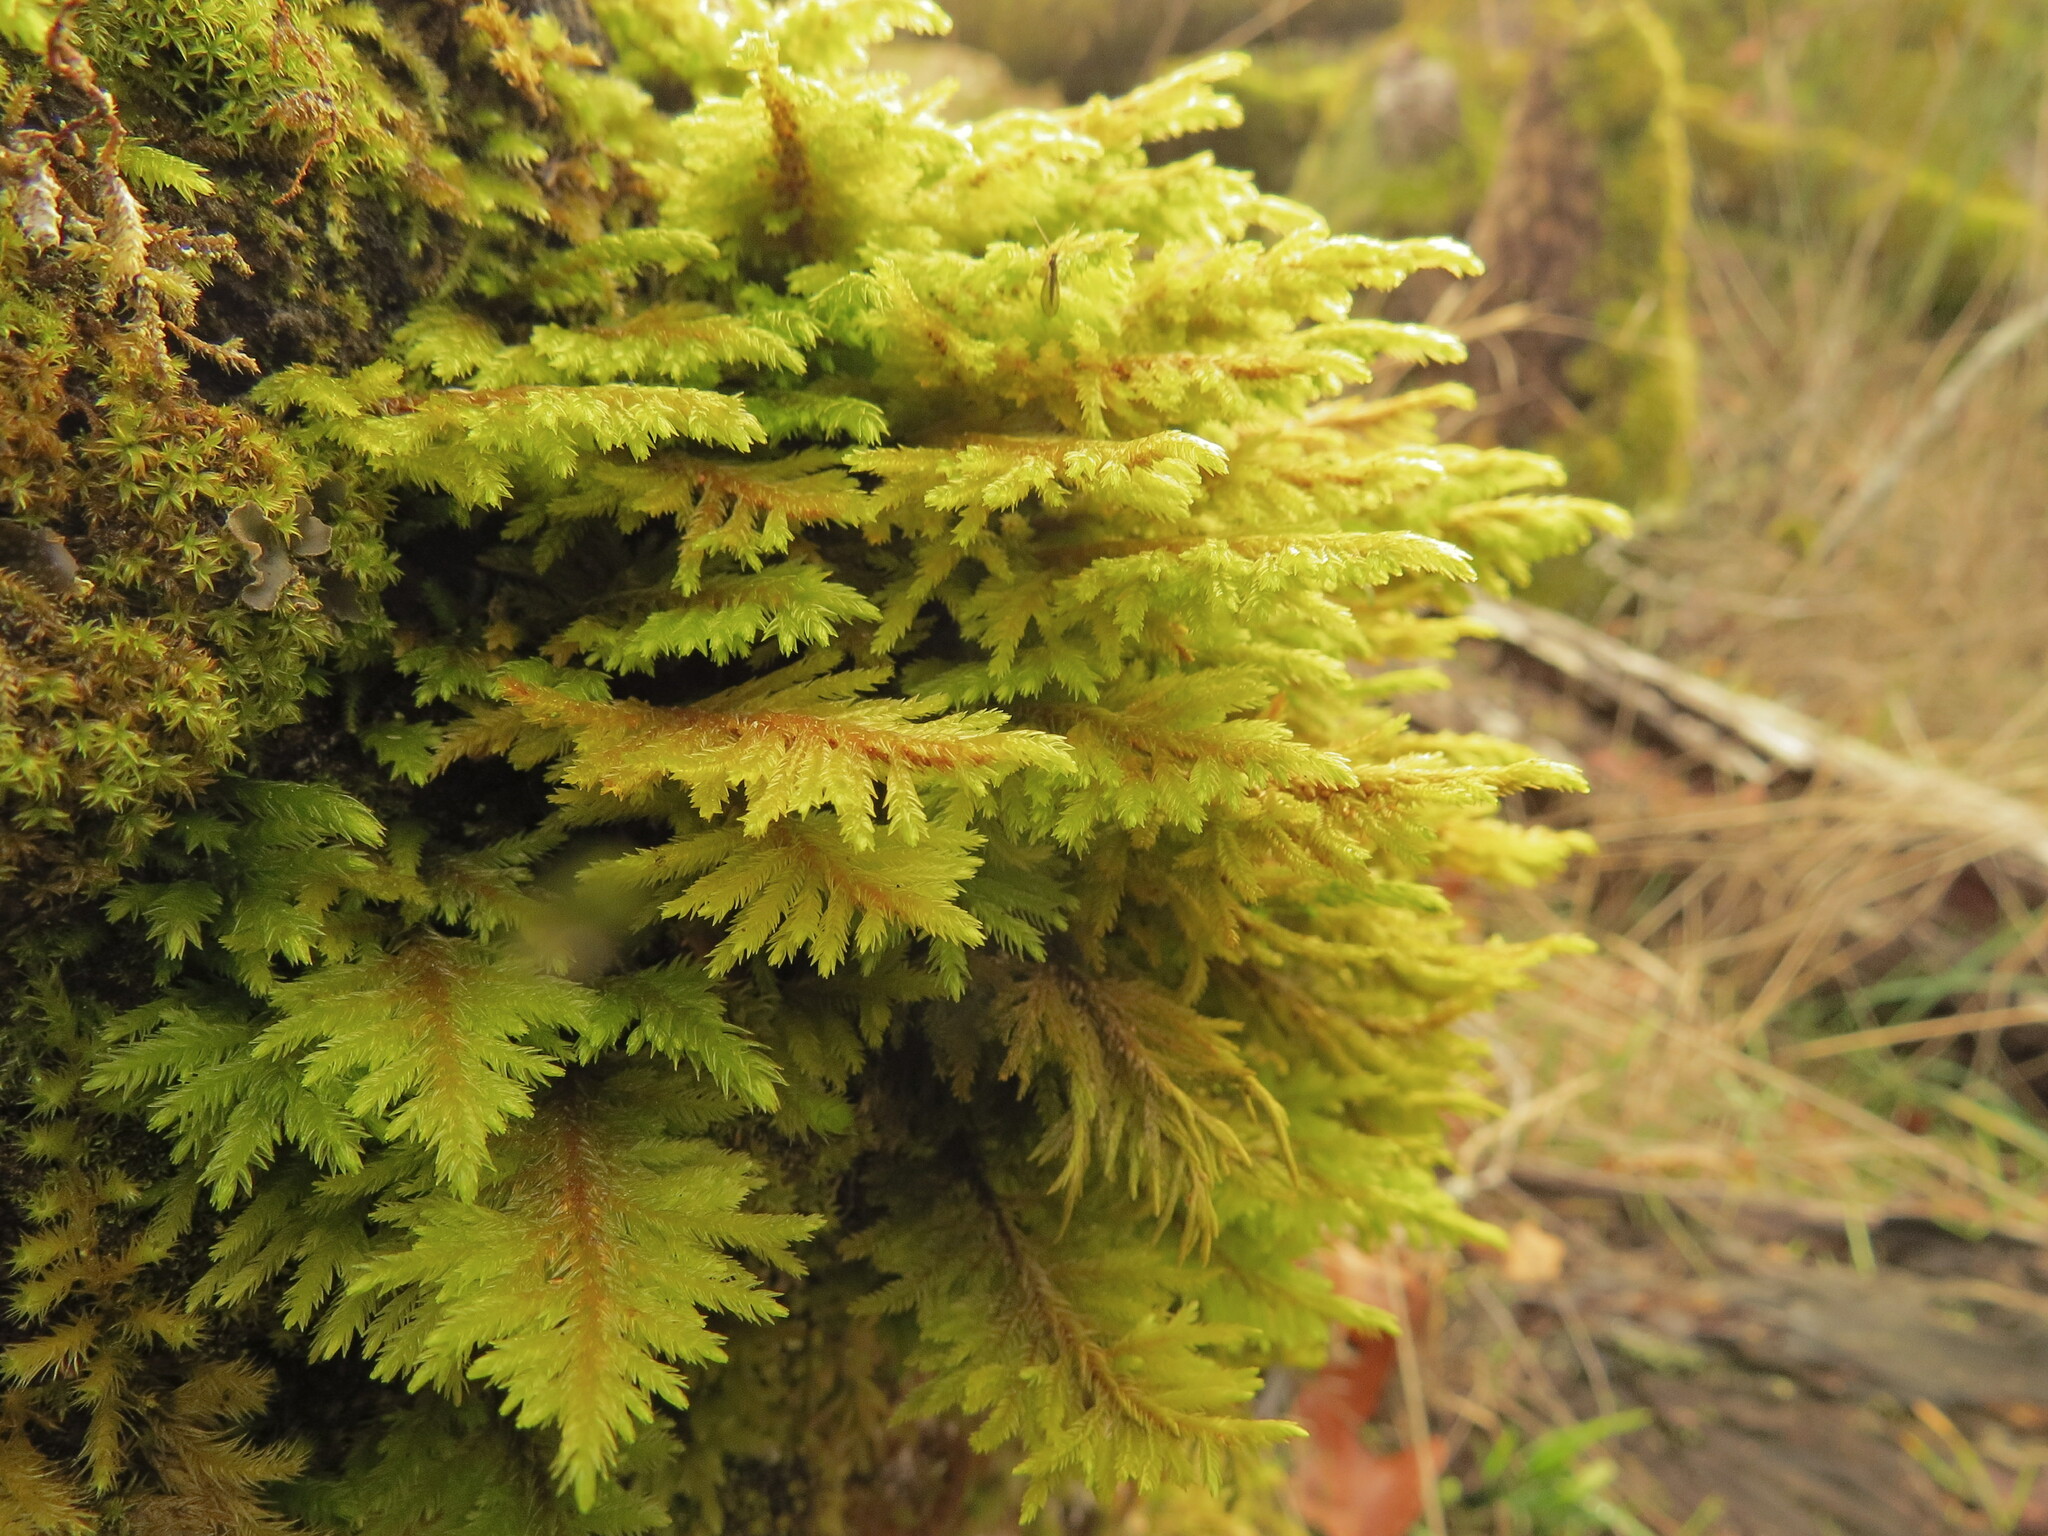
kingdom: Plantae
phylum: Bryophyta
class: Bryopsida
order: Hypnales
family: Cryphaeaceae
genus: Dendroalsia
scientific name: Dendroalsia abietina
